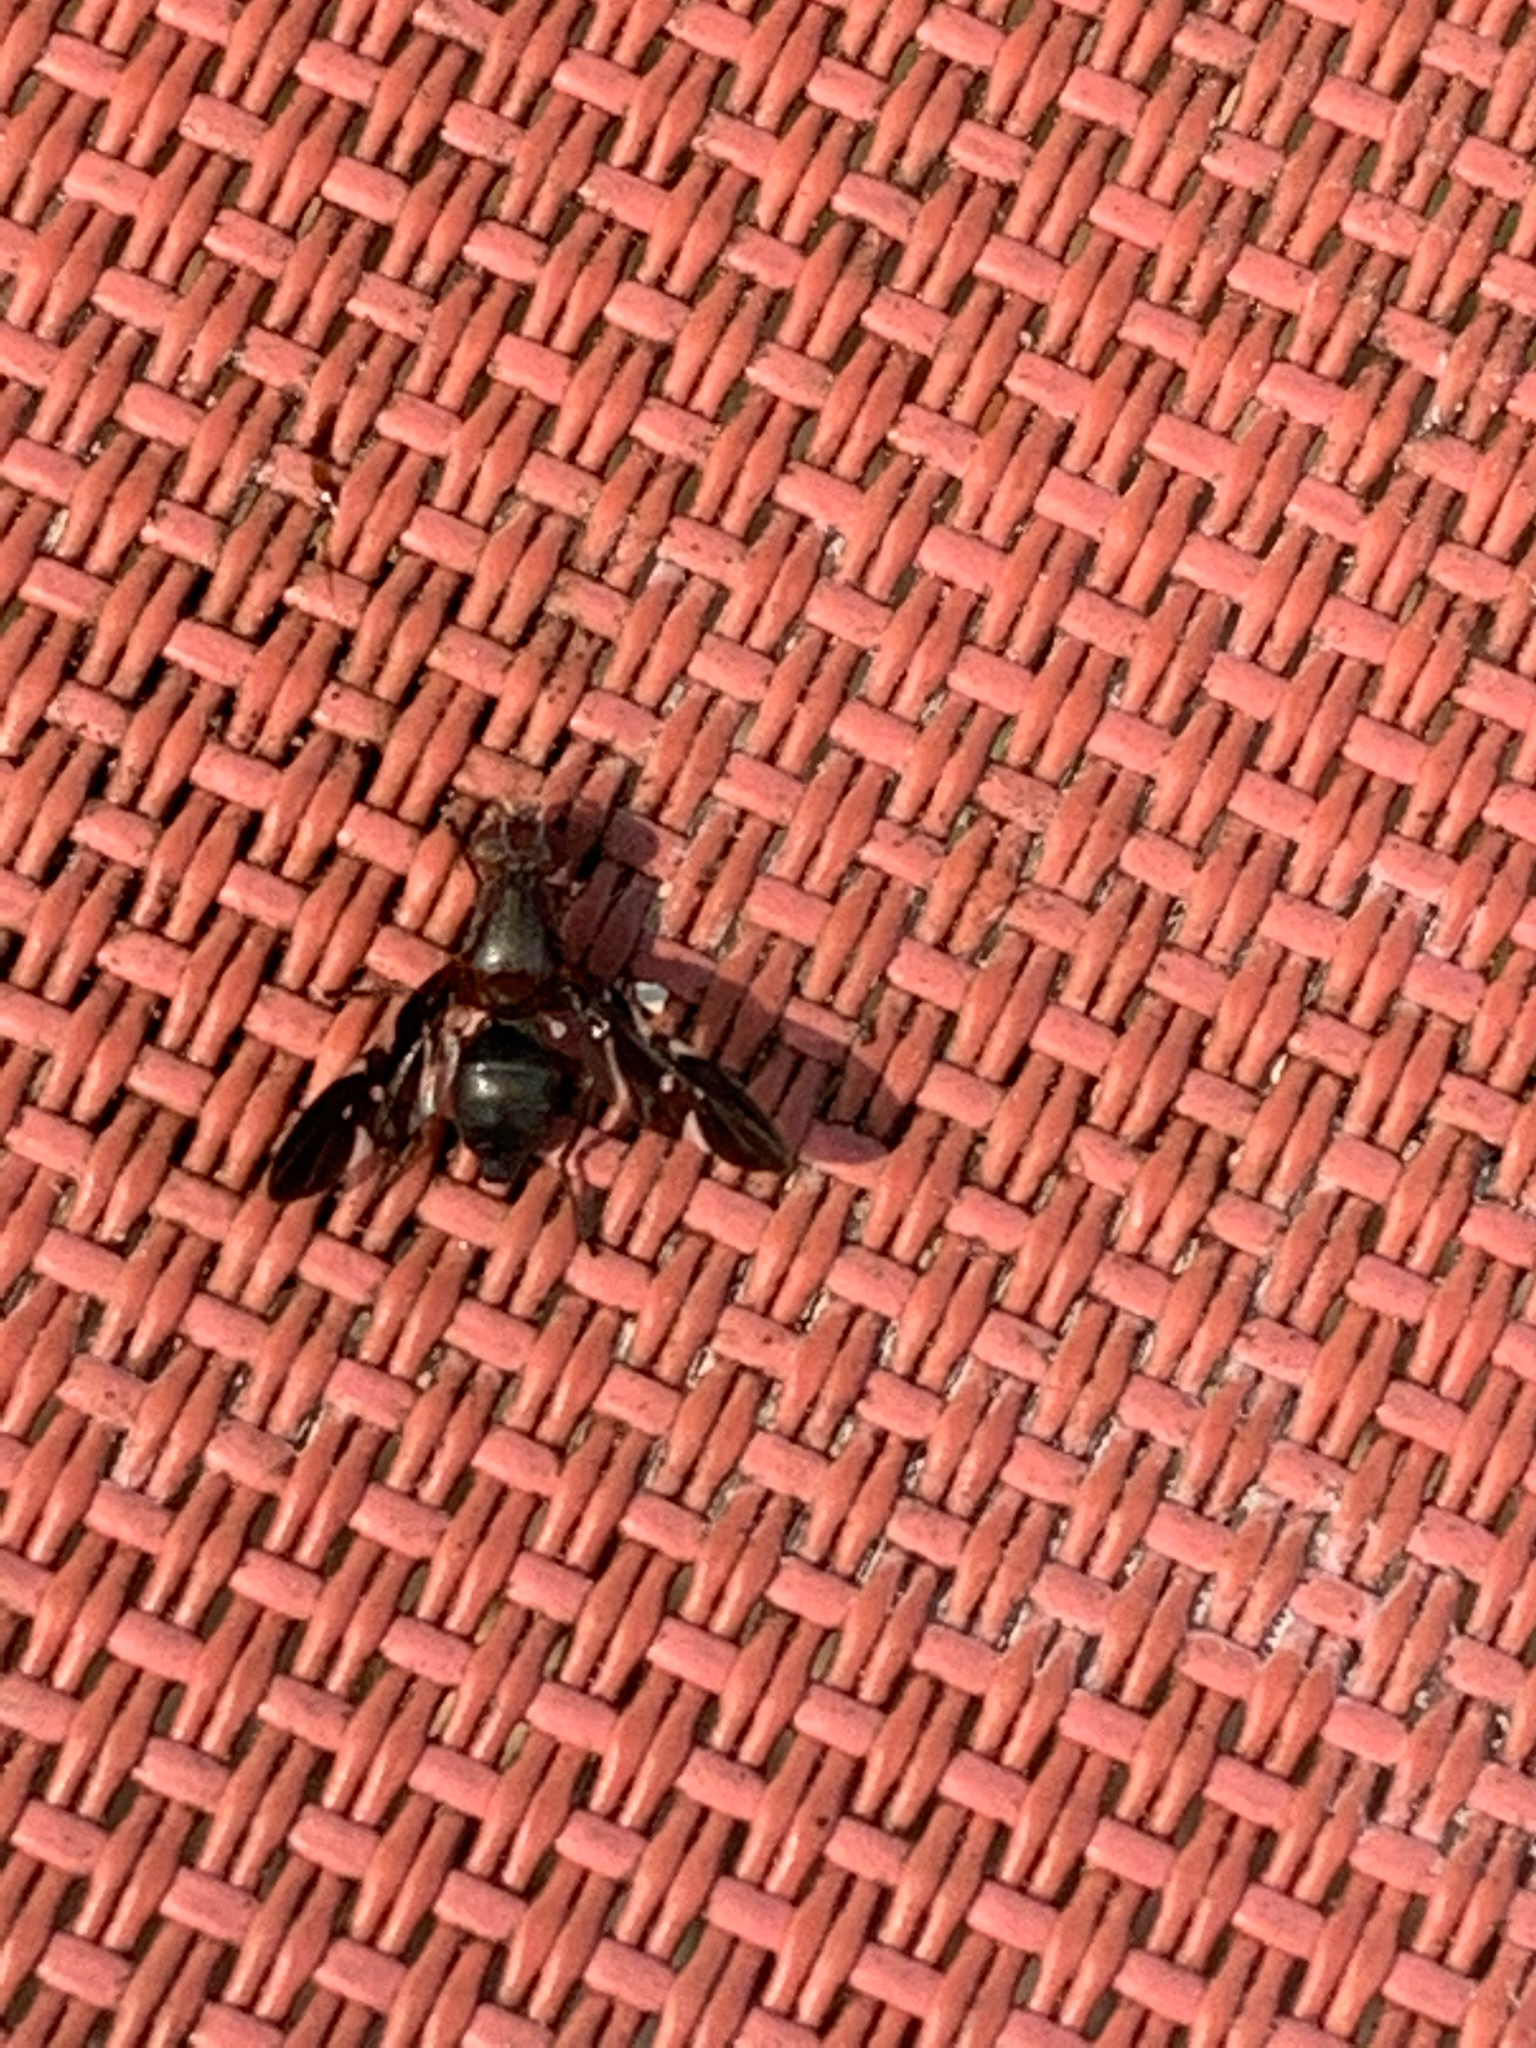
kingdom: Animalia
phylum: Arthropoda
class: Insecta
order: Diptera
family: Ulidiidae
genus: Delphinia
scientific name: Delphinia picta
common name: Common picture-winged fly
